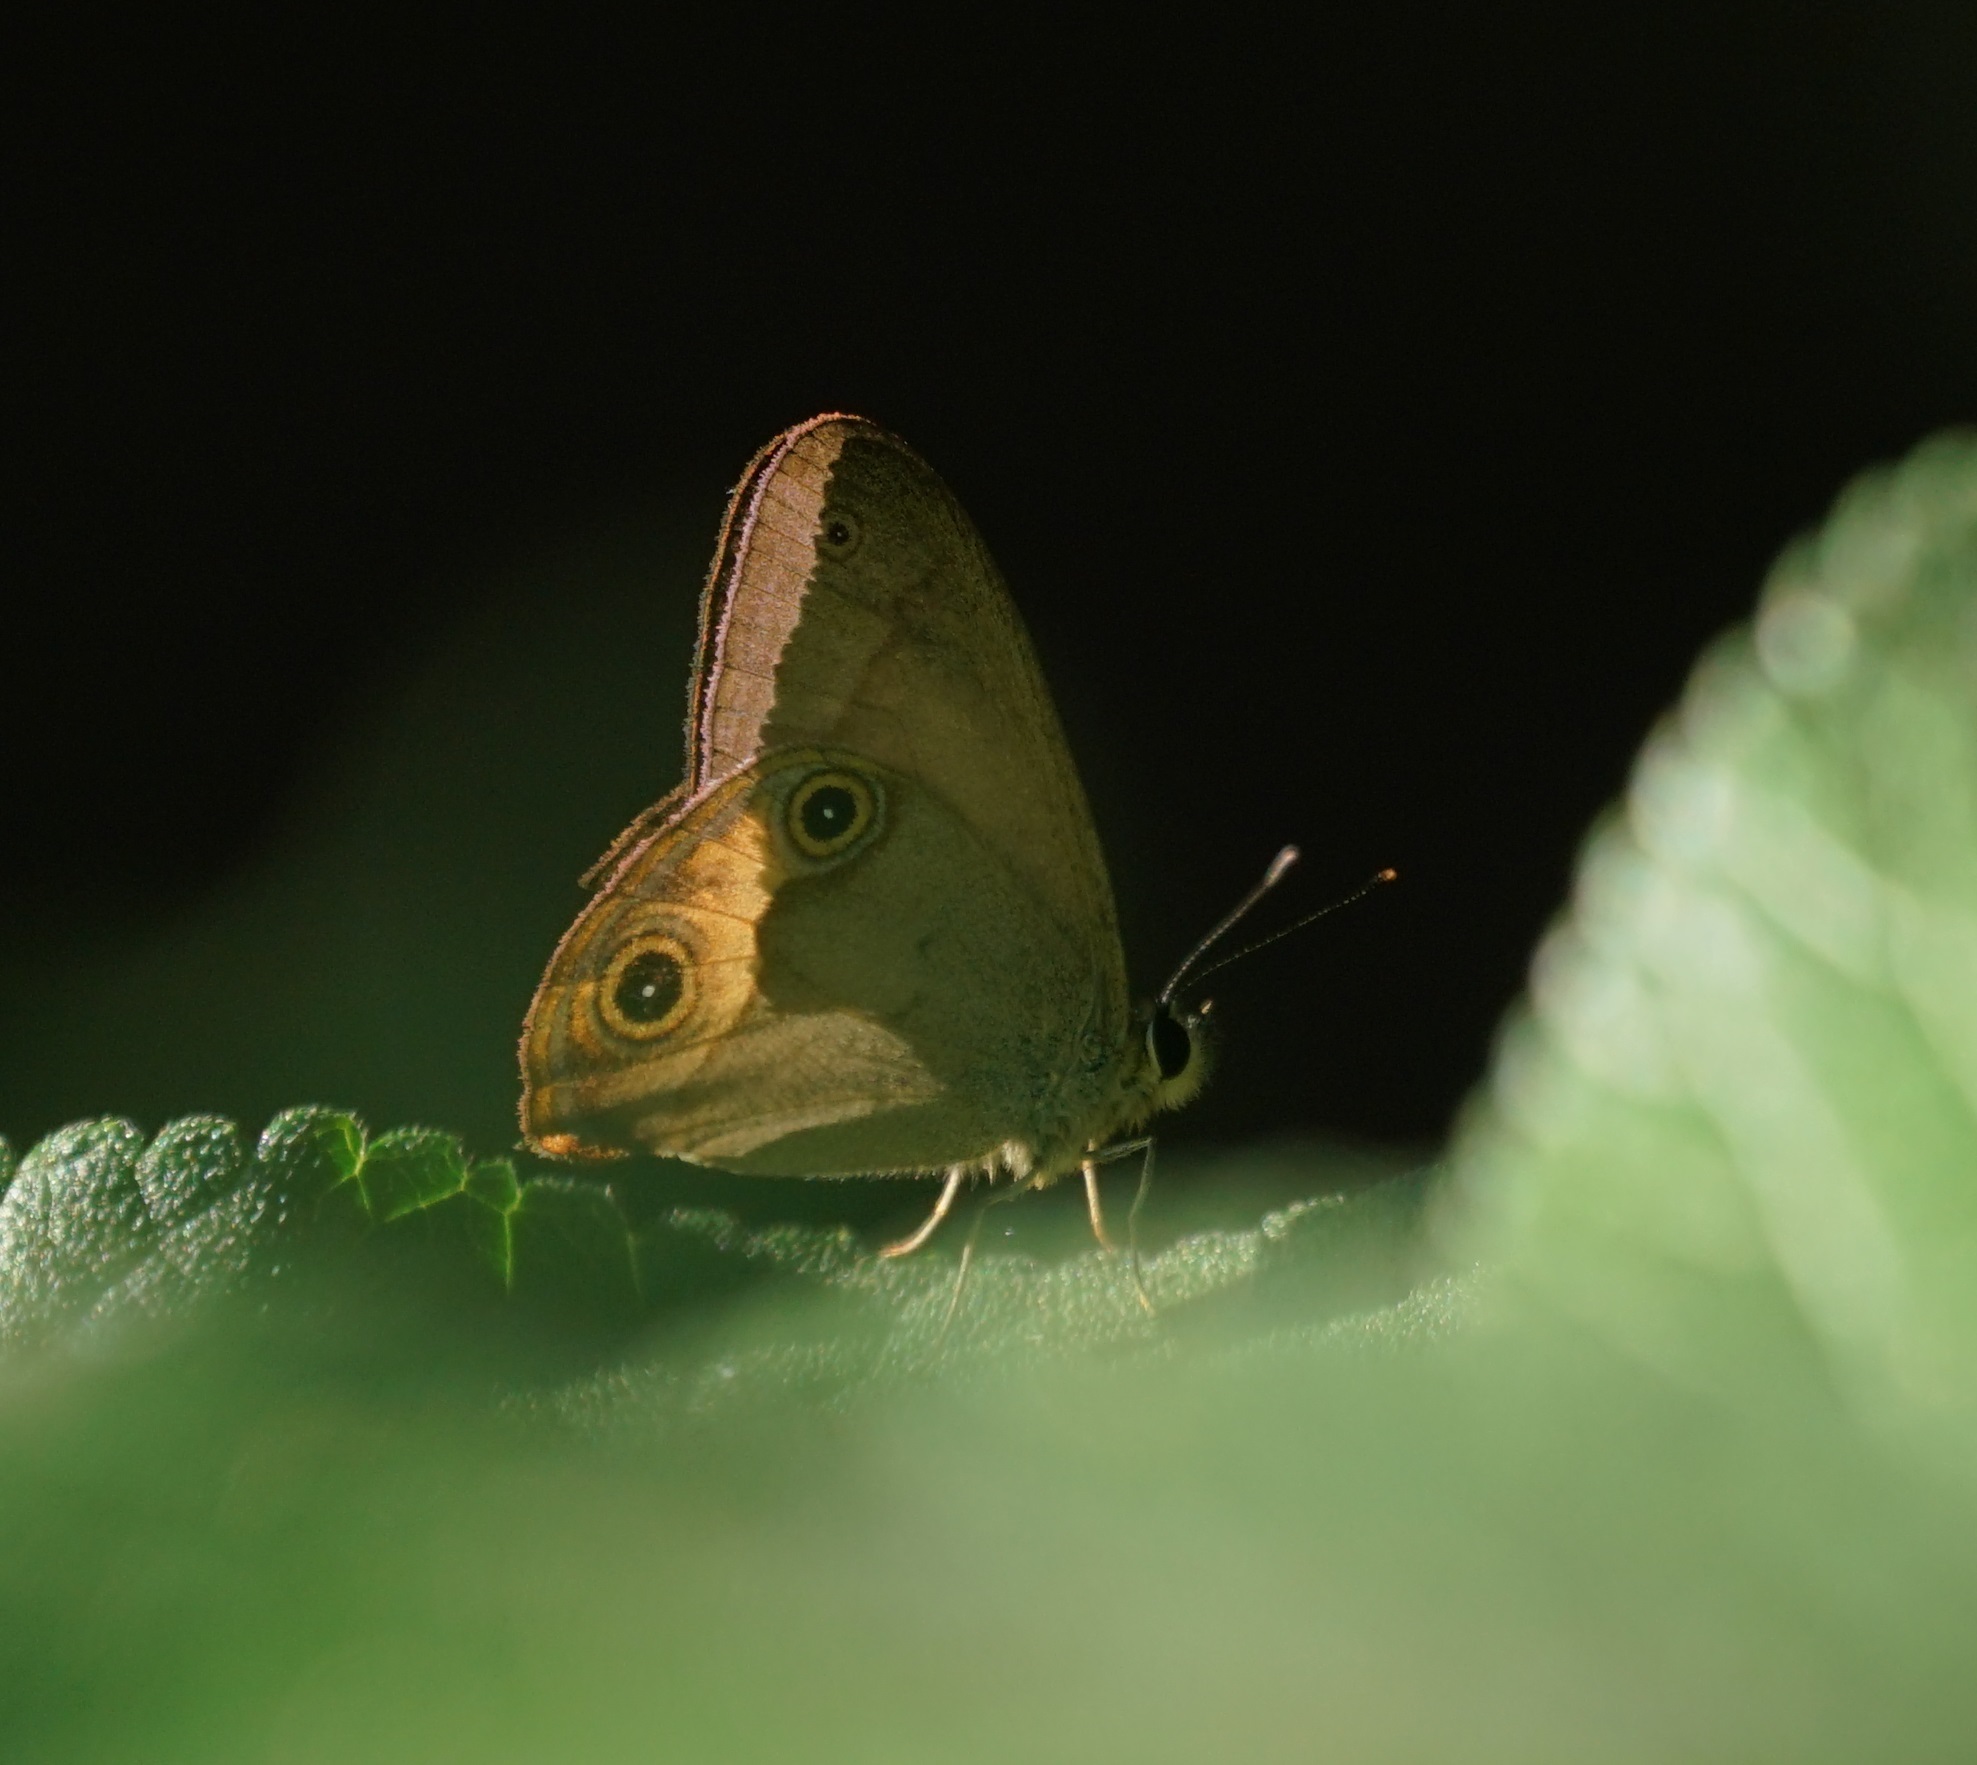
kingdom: Animalia
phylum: Arthropoda
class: Insecta
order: Lepidoptera
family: Nymphalidae
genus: Hypocysta
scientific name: Hypocysta metirius
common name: Brown ringlet
